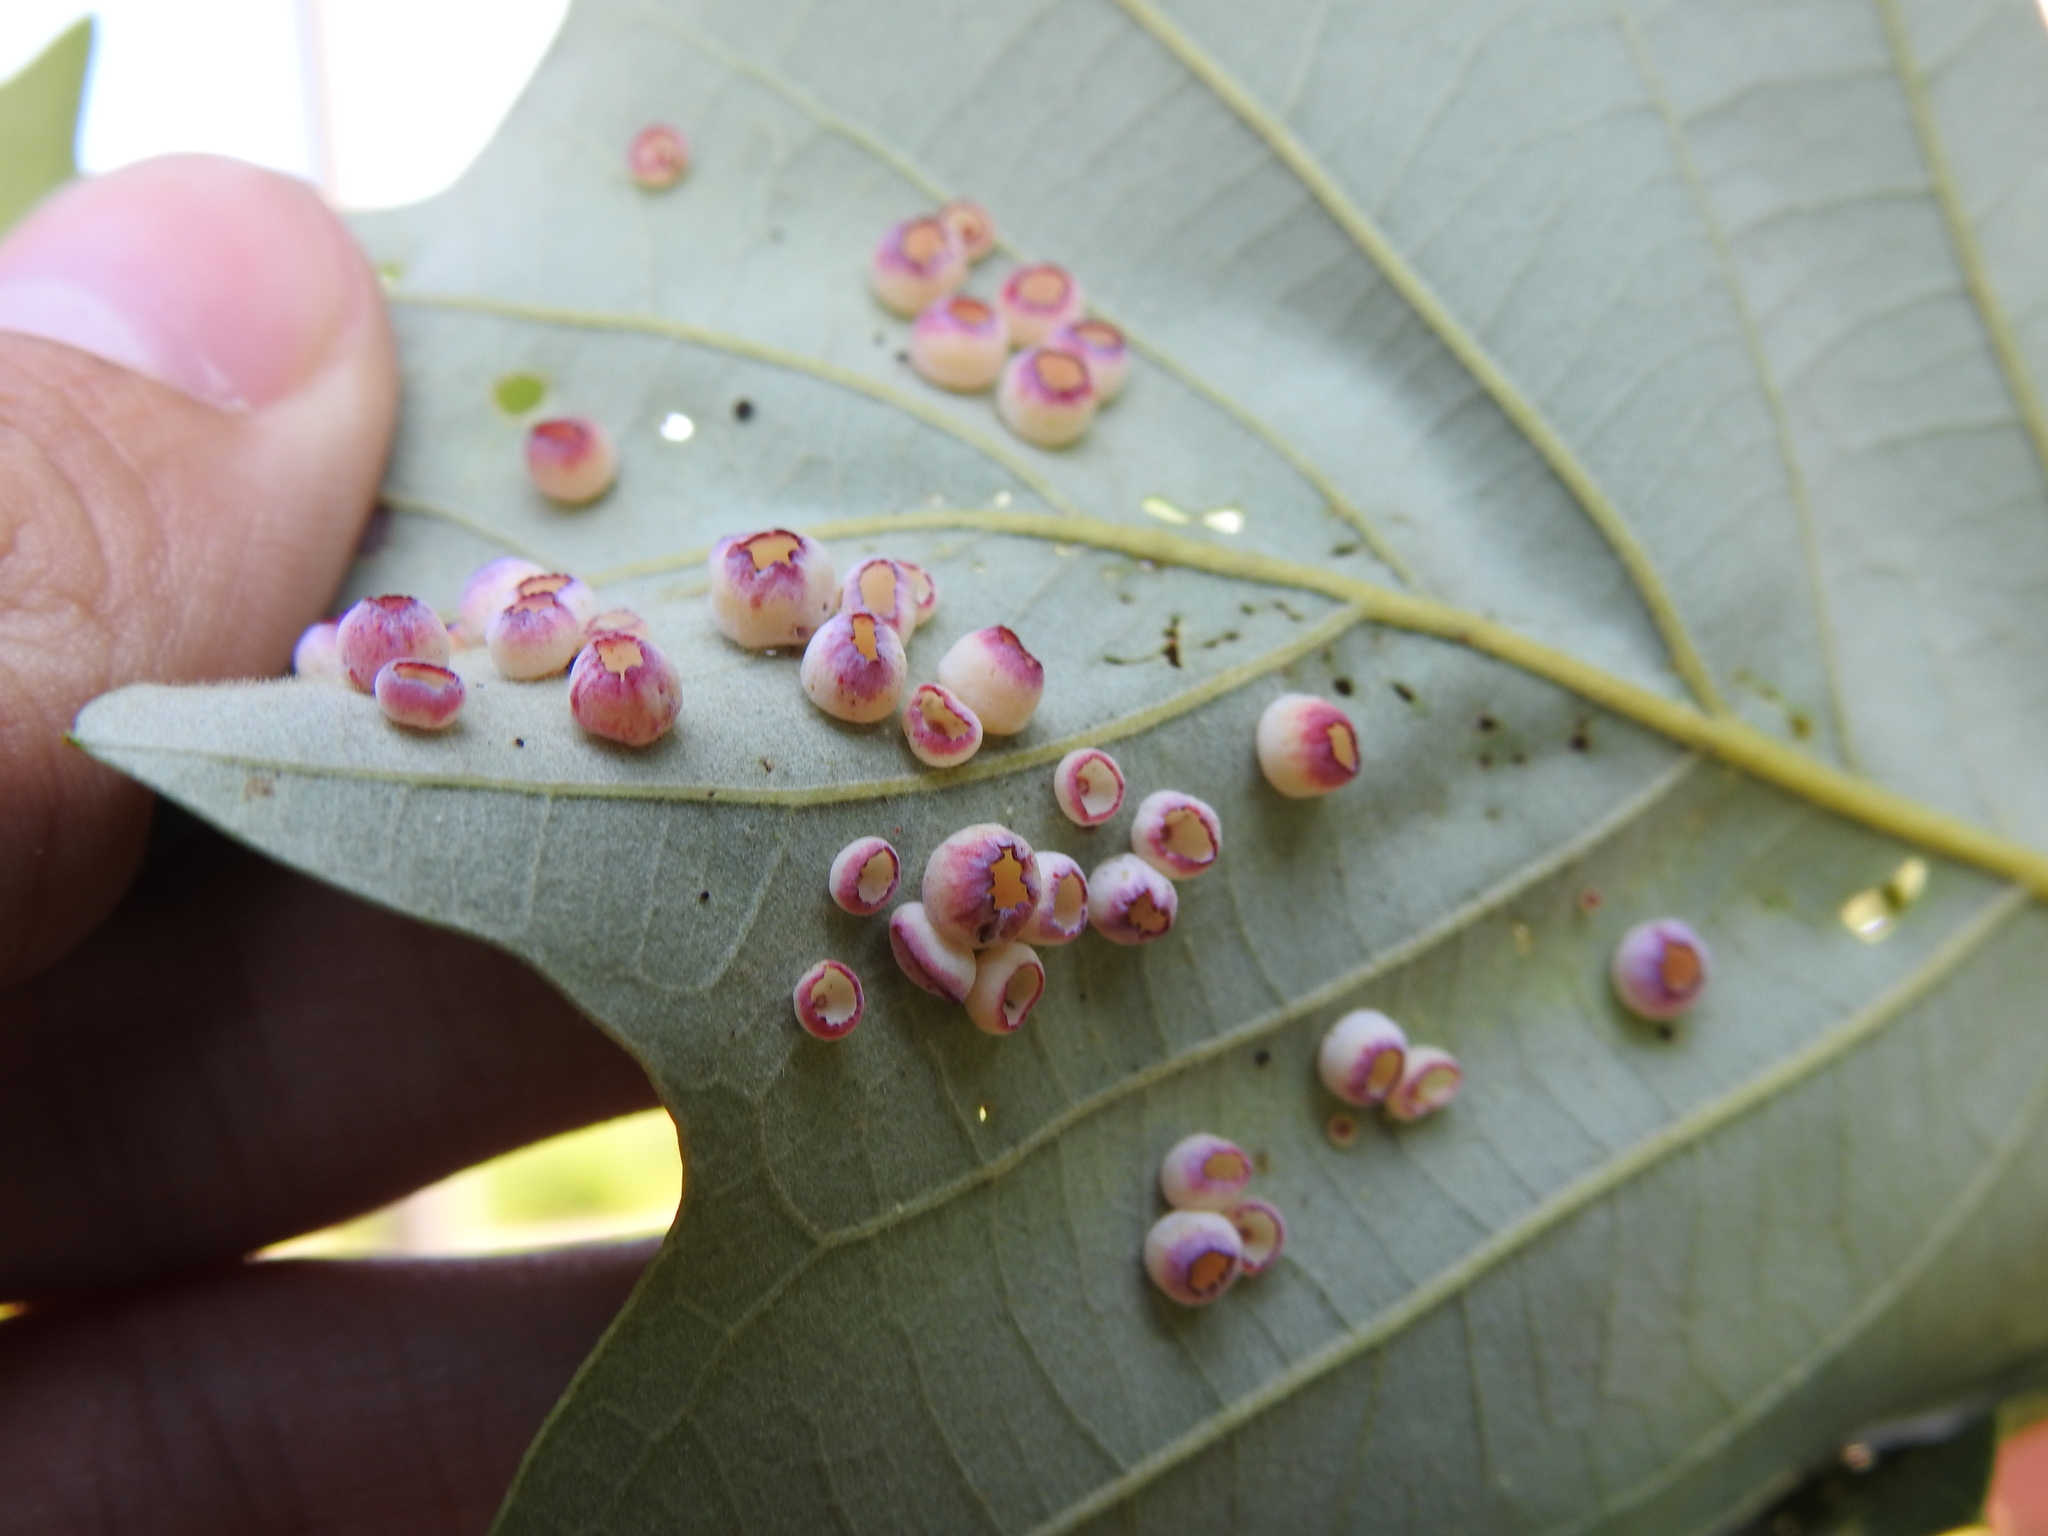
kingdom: Animalia
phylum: Arthropoda
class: Insecta
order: Hymenoptera
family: Cynipidae
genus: Phylloteras
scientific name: Phylloteras
